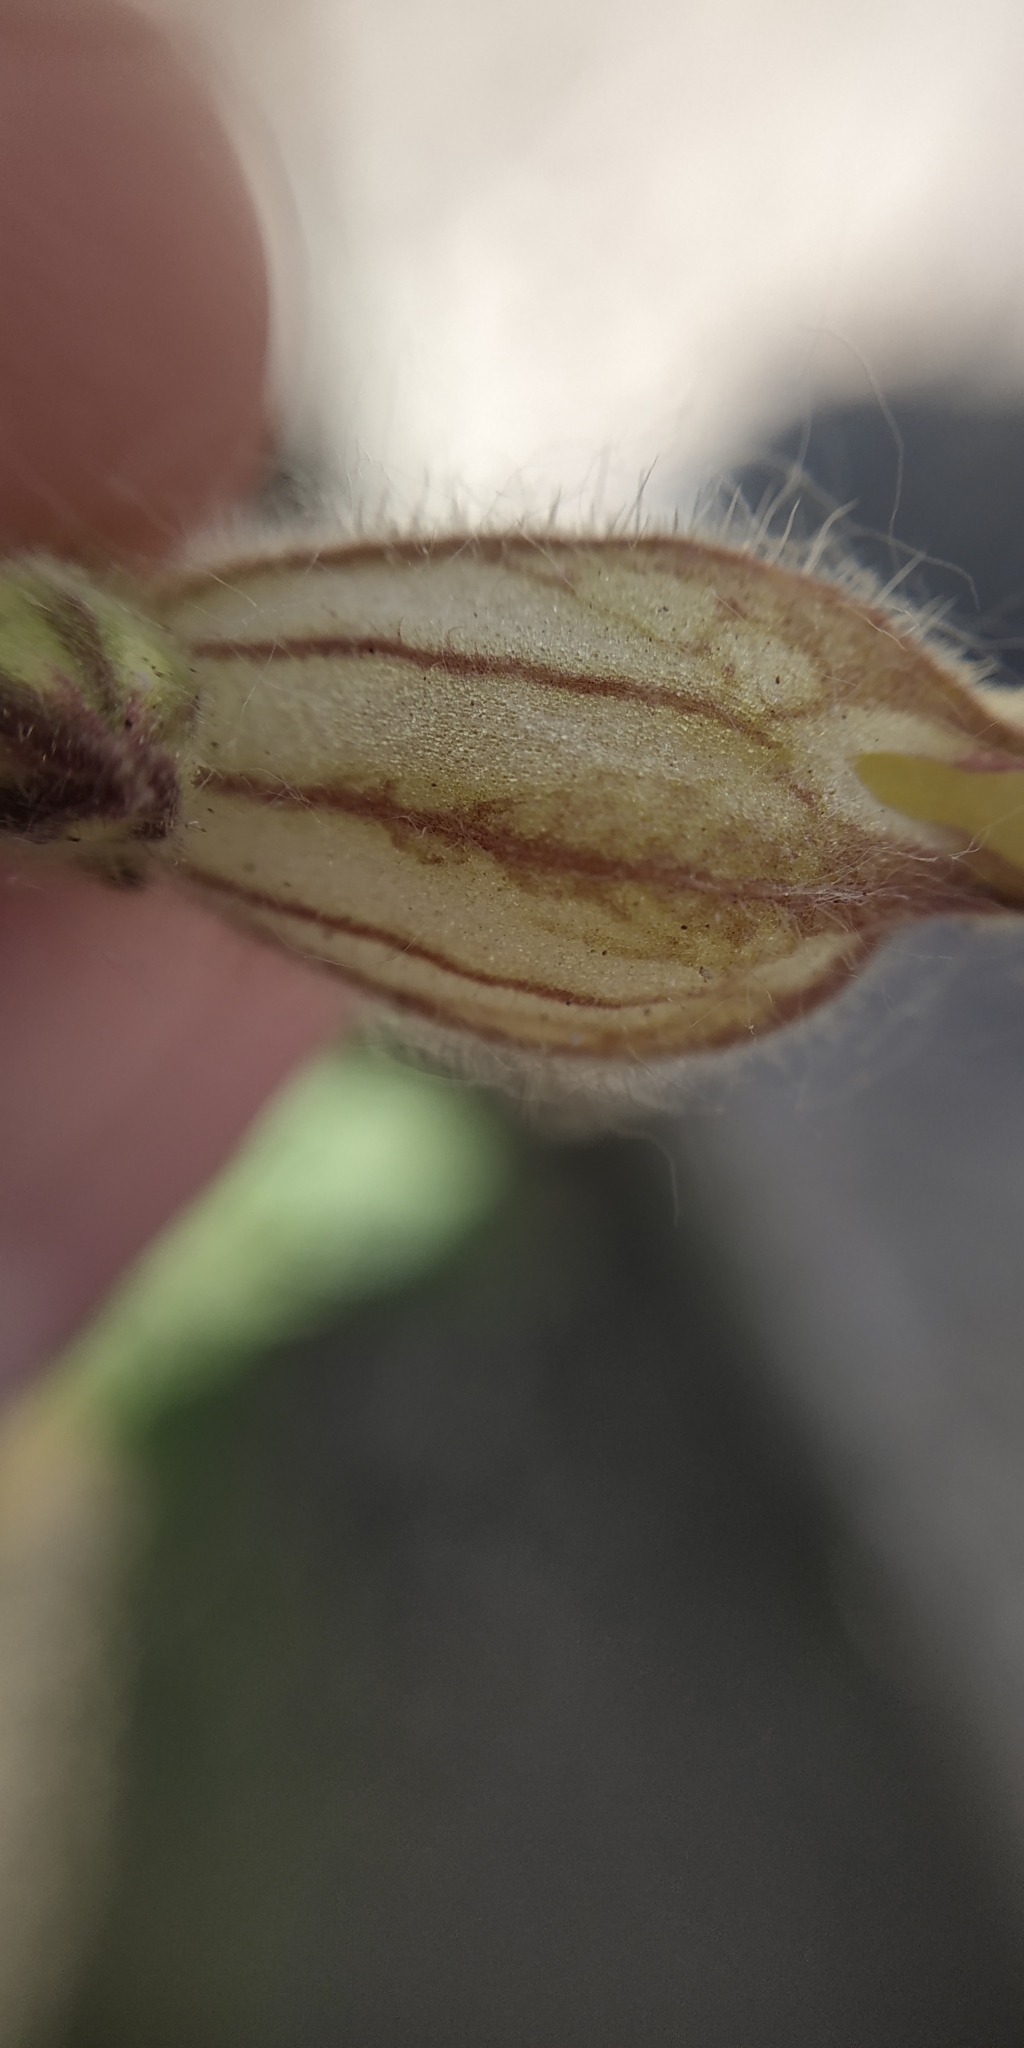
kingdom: Plantae
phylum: Tracheophyta
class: Magnoliopsida
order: Caryophyllales
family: Caryophyllaceae
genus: Silene
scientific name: Silene latifolia
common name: White campion
